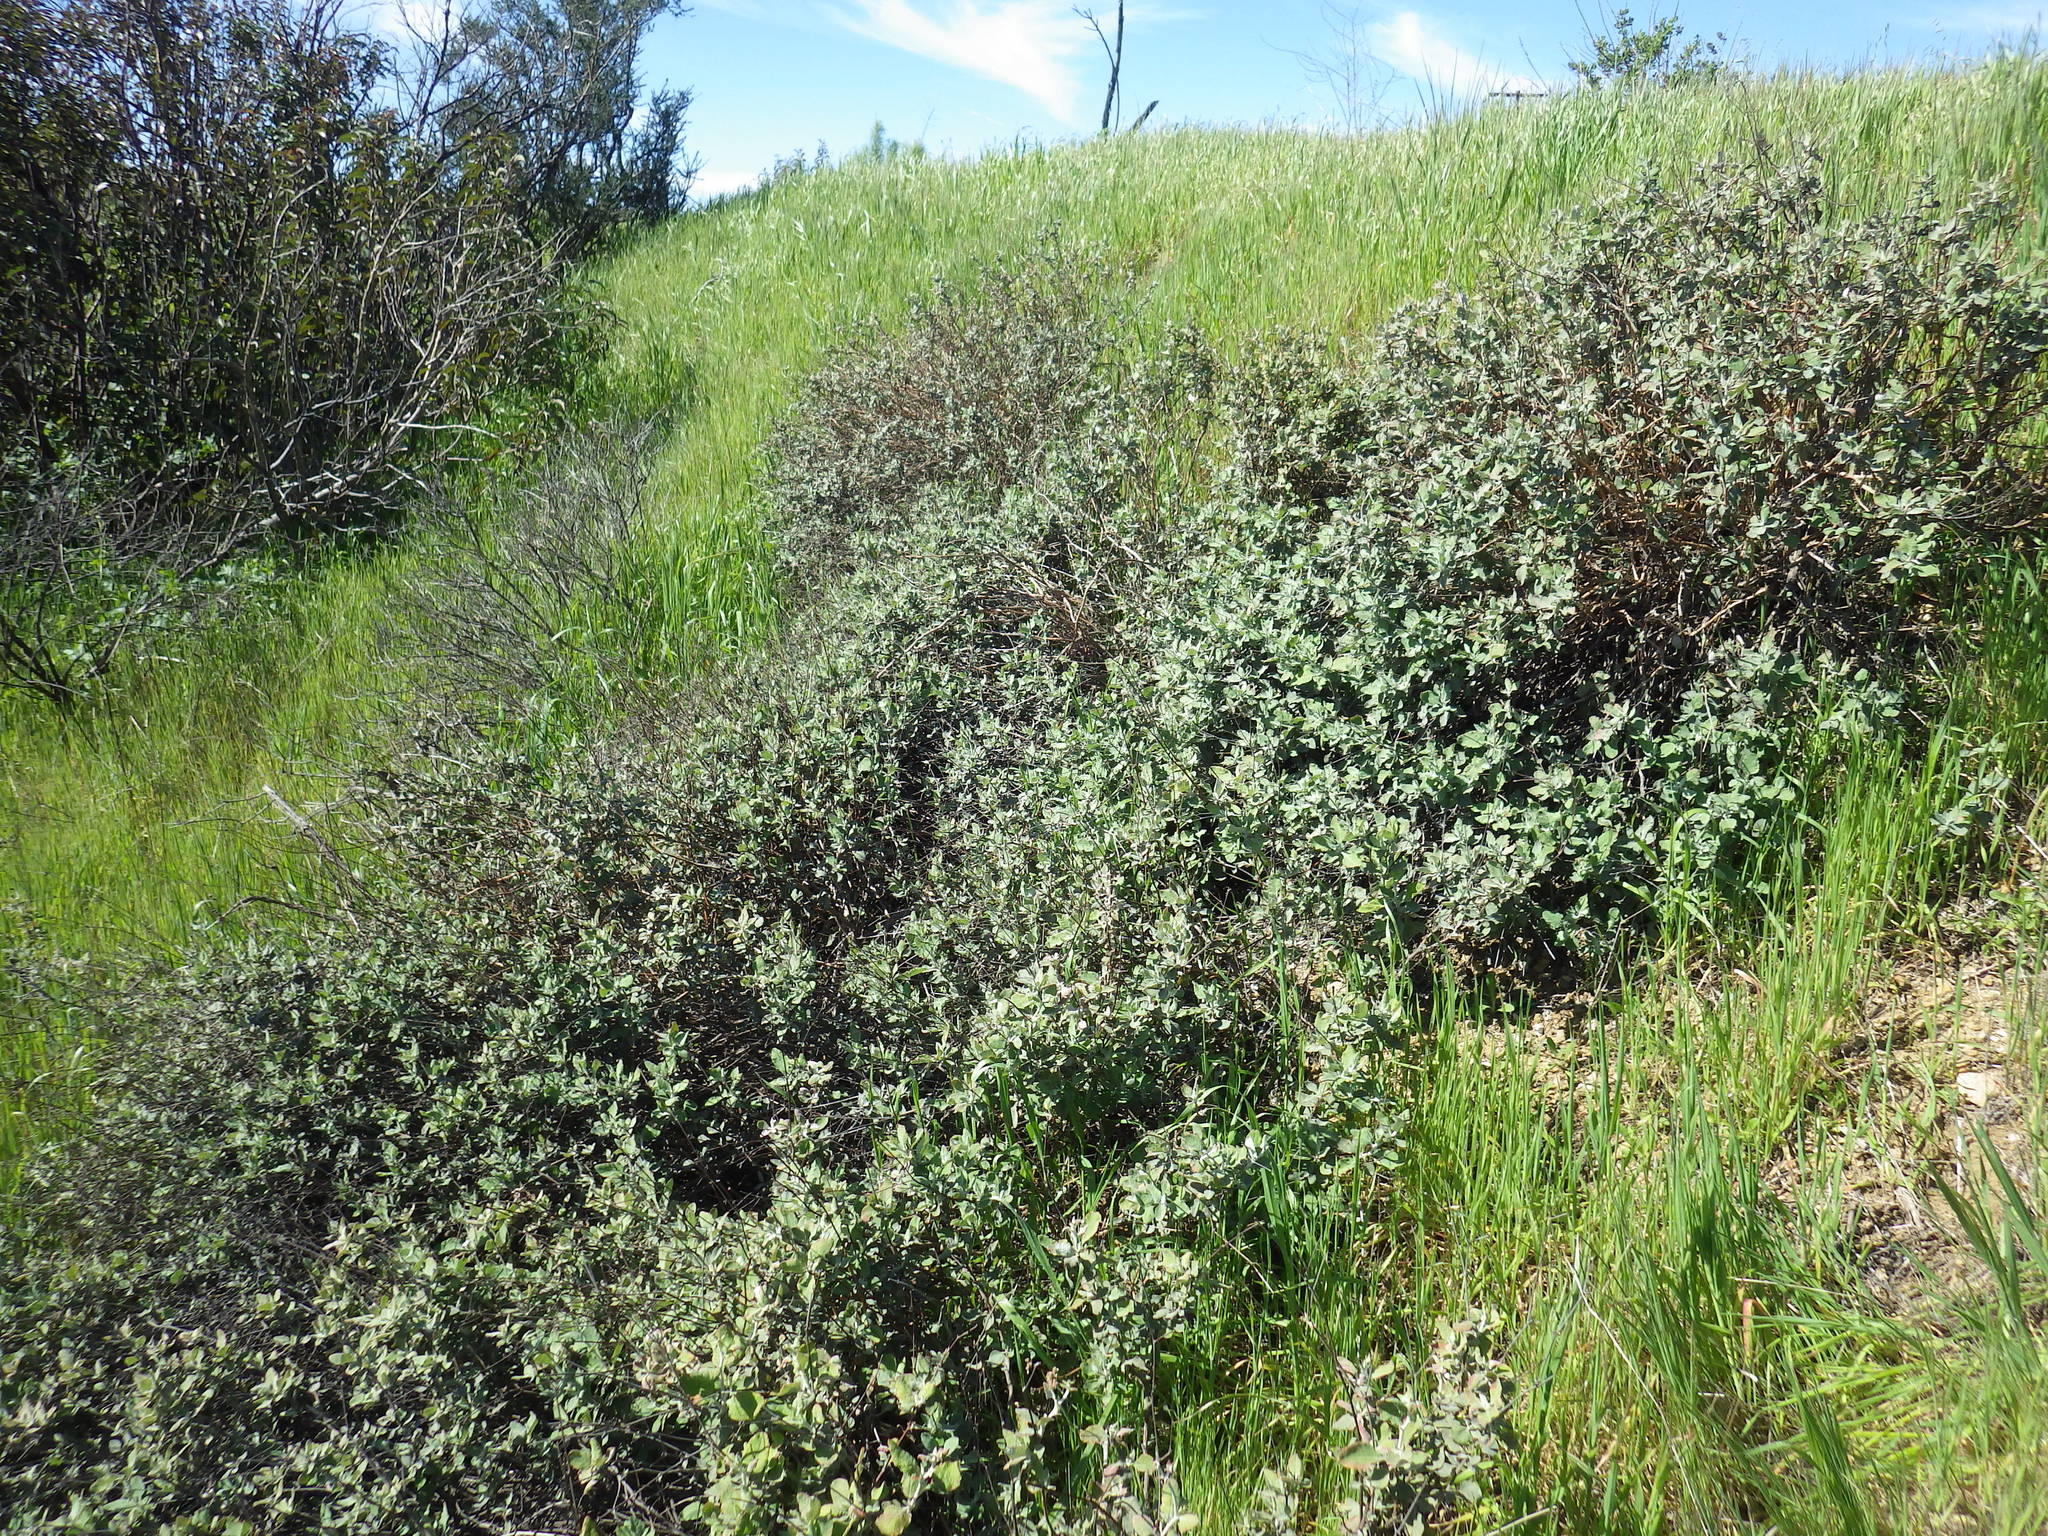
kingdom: Plantae
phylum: Tracheophyta
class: Magnoliopsida
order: Caryophyllales
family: Polygonaceae
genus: Eriogonum
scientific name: Eriogonum cinereum
